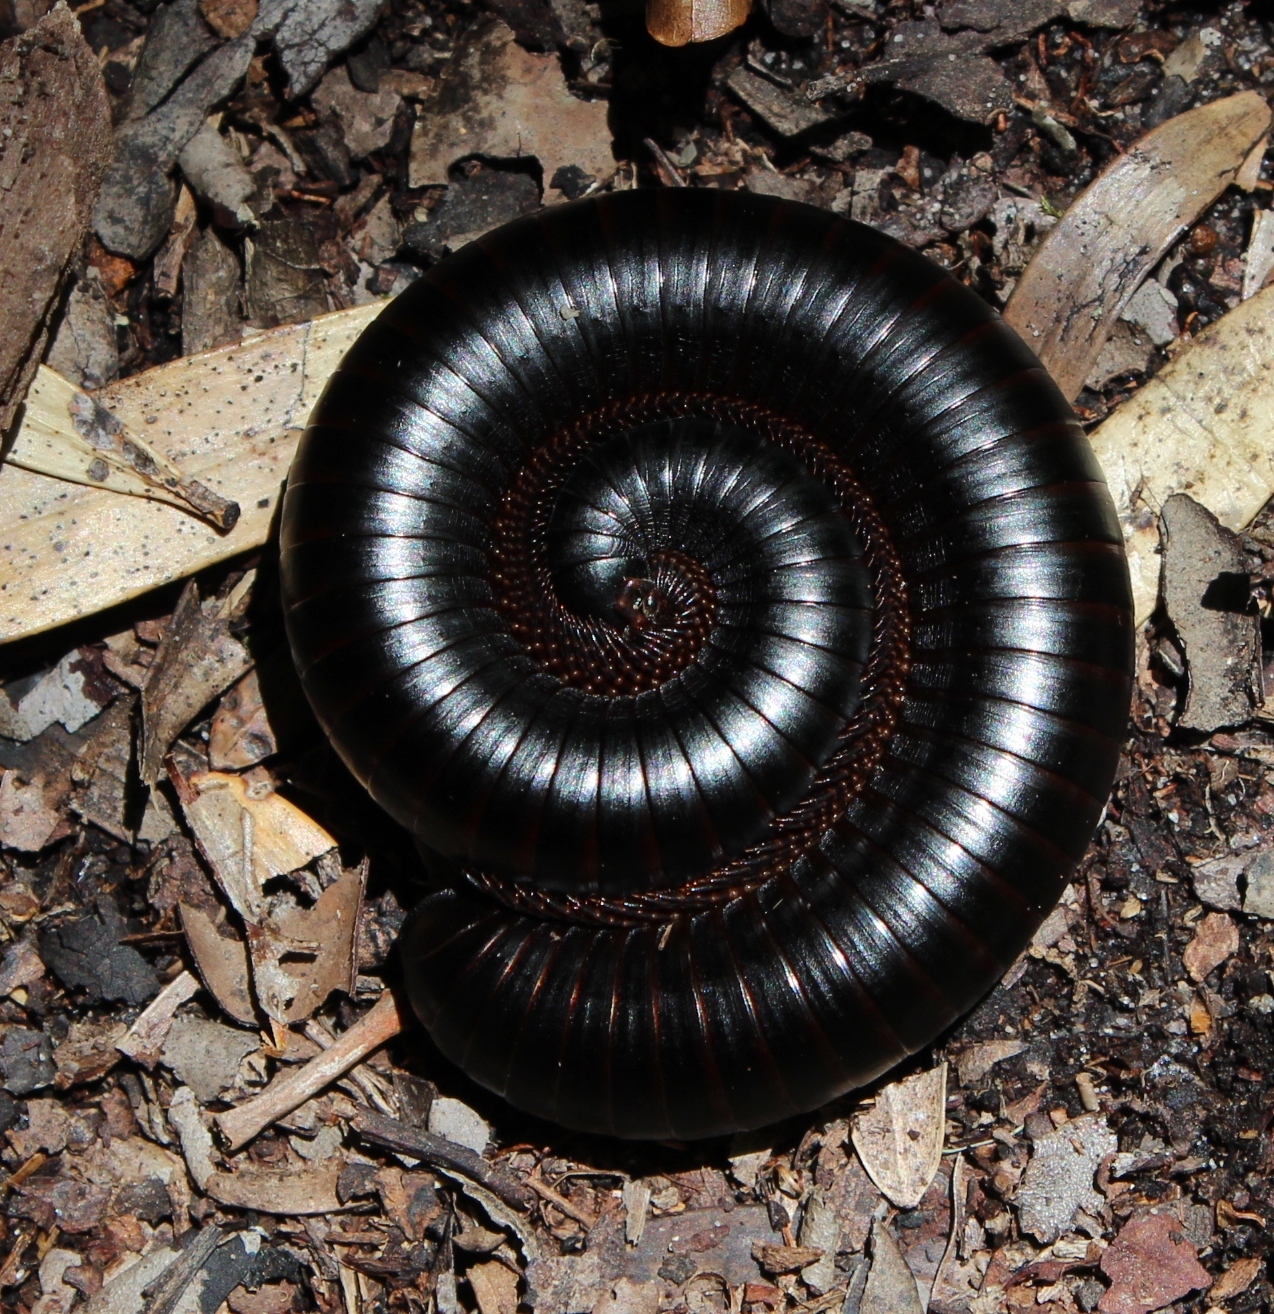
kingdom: Animalia
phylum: Arthropoda
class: Diplopoda
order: Spirostreptida
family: Spirostreptidae
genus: Doratogonus
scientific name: Doratogonus annulipes
